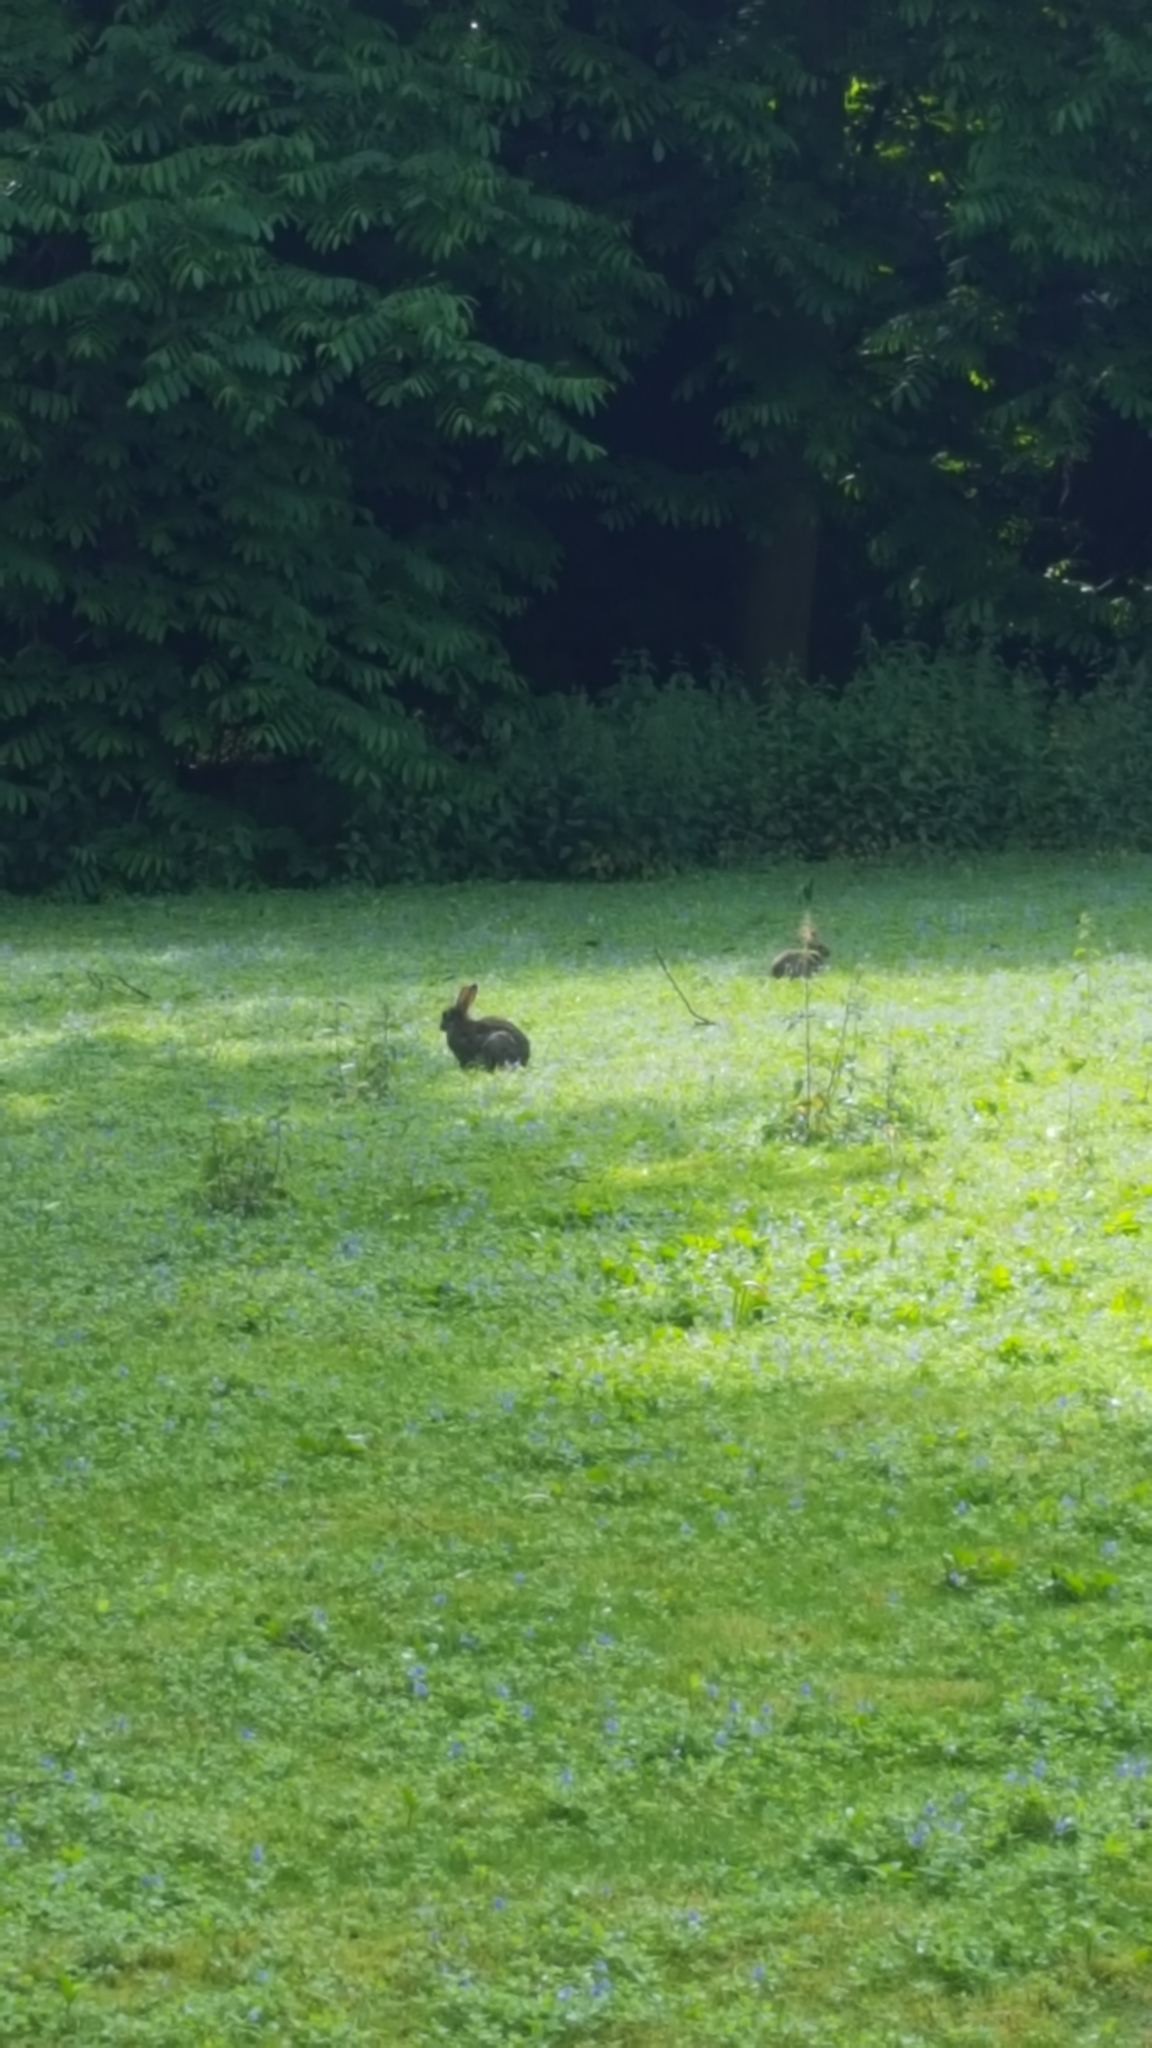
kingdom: Animalia
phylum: Chordata
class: Mammalia
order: Lagomorpha
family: Leporidae
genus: Oryctolagus
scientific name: Oryctolagus cuniculus
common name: European rabbit
